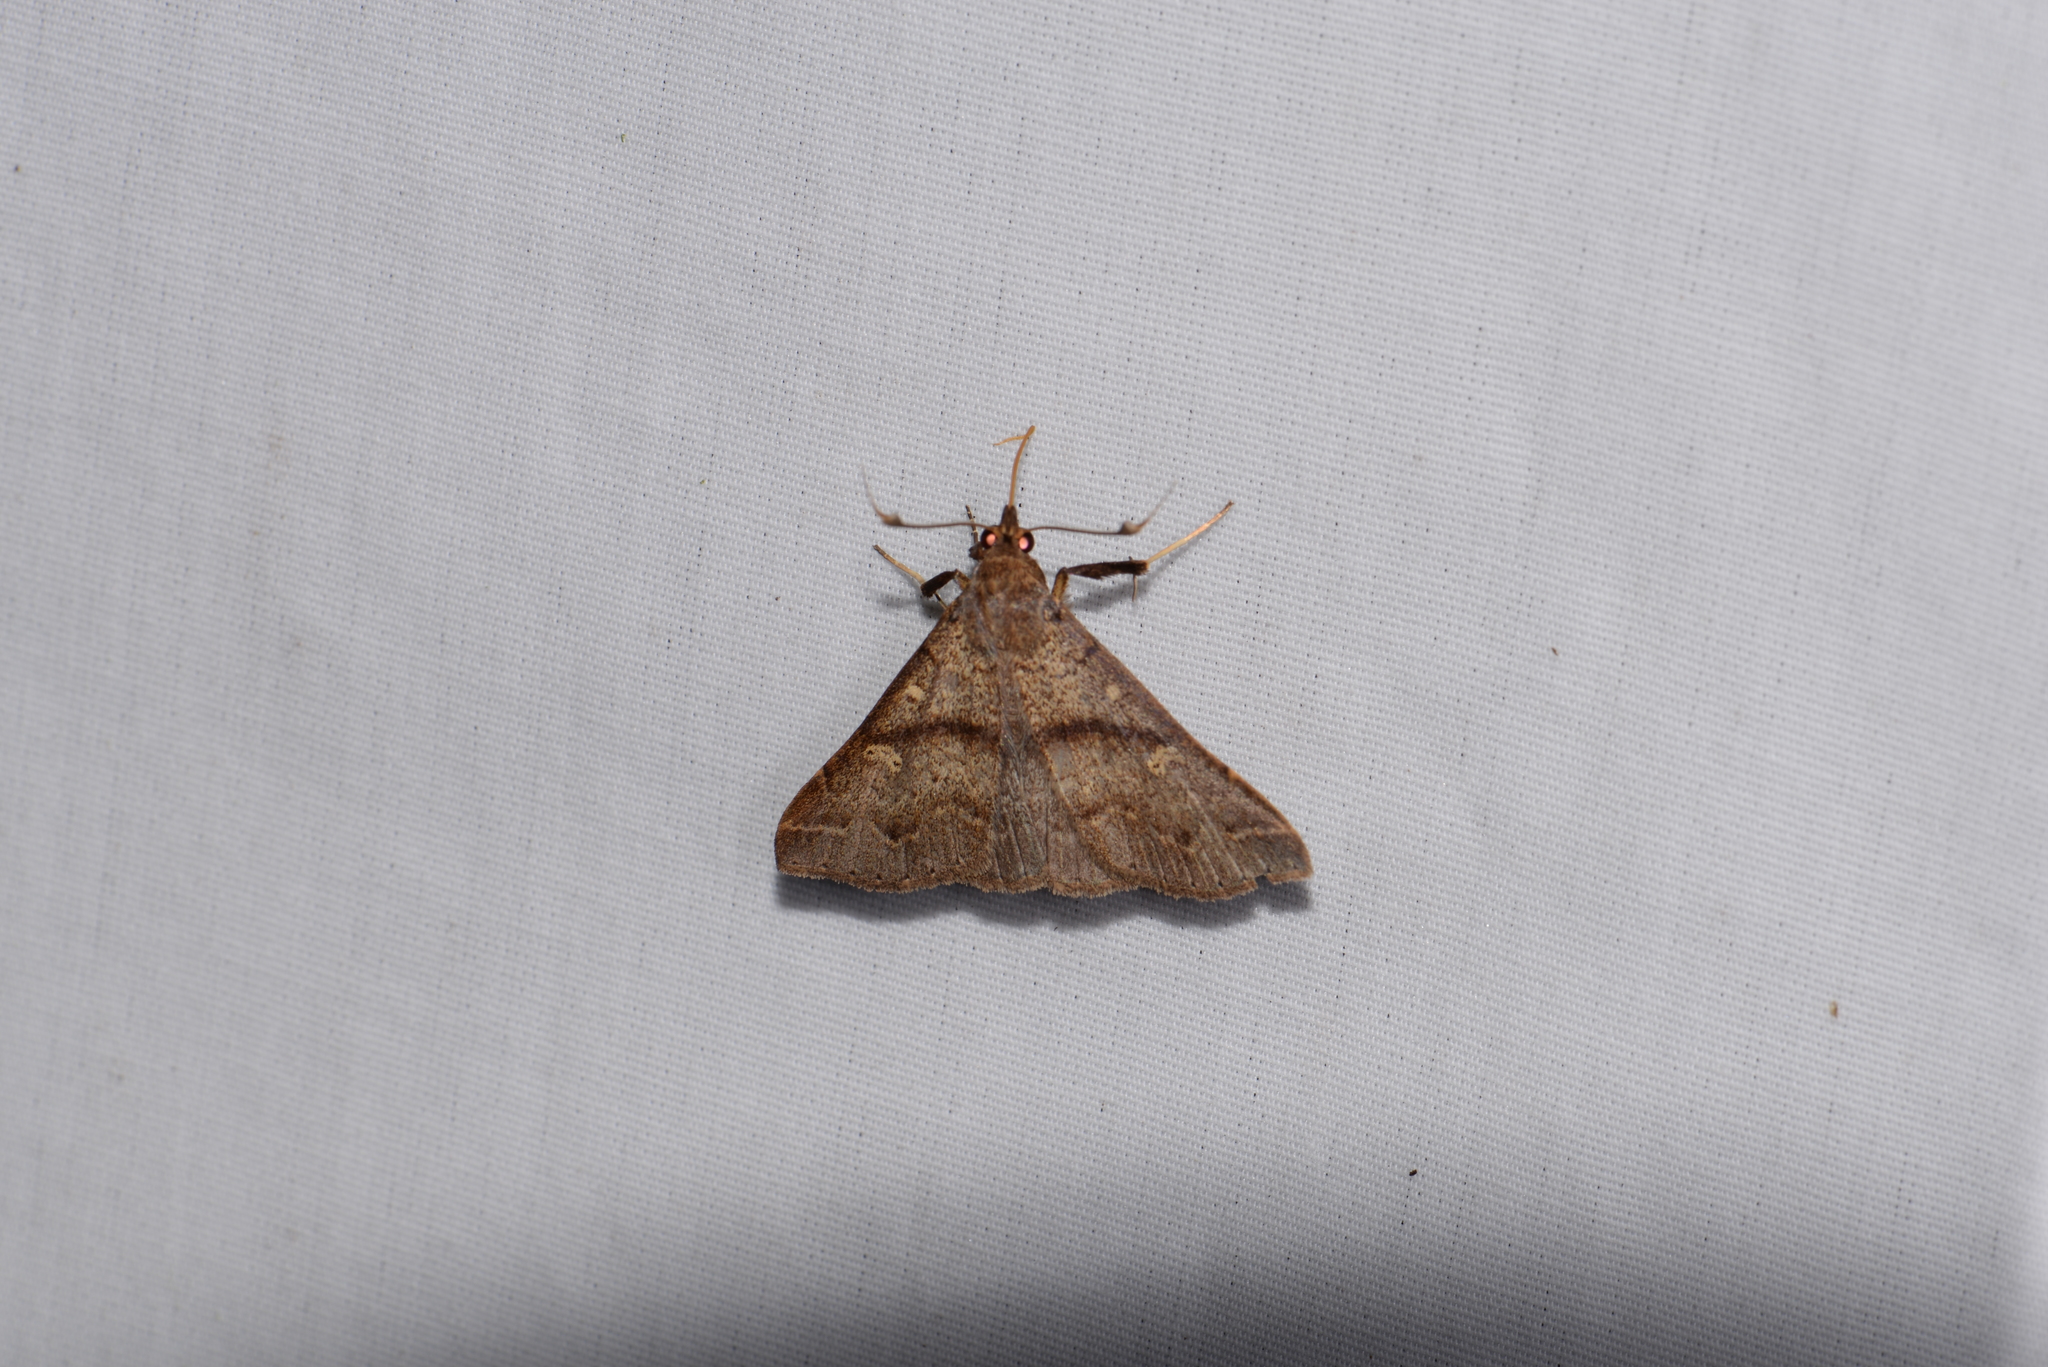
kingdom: Animalia
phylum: Arthropoda
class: Insecta
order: Lepidoptera
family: Erebidae
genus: Renia
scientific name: Renia discoloralis
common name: Discolored renia moth
